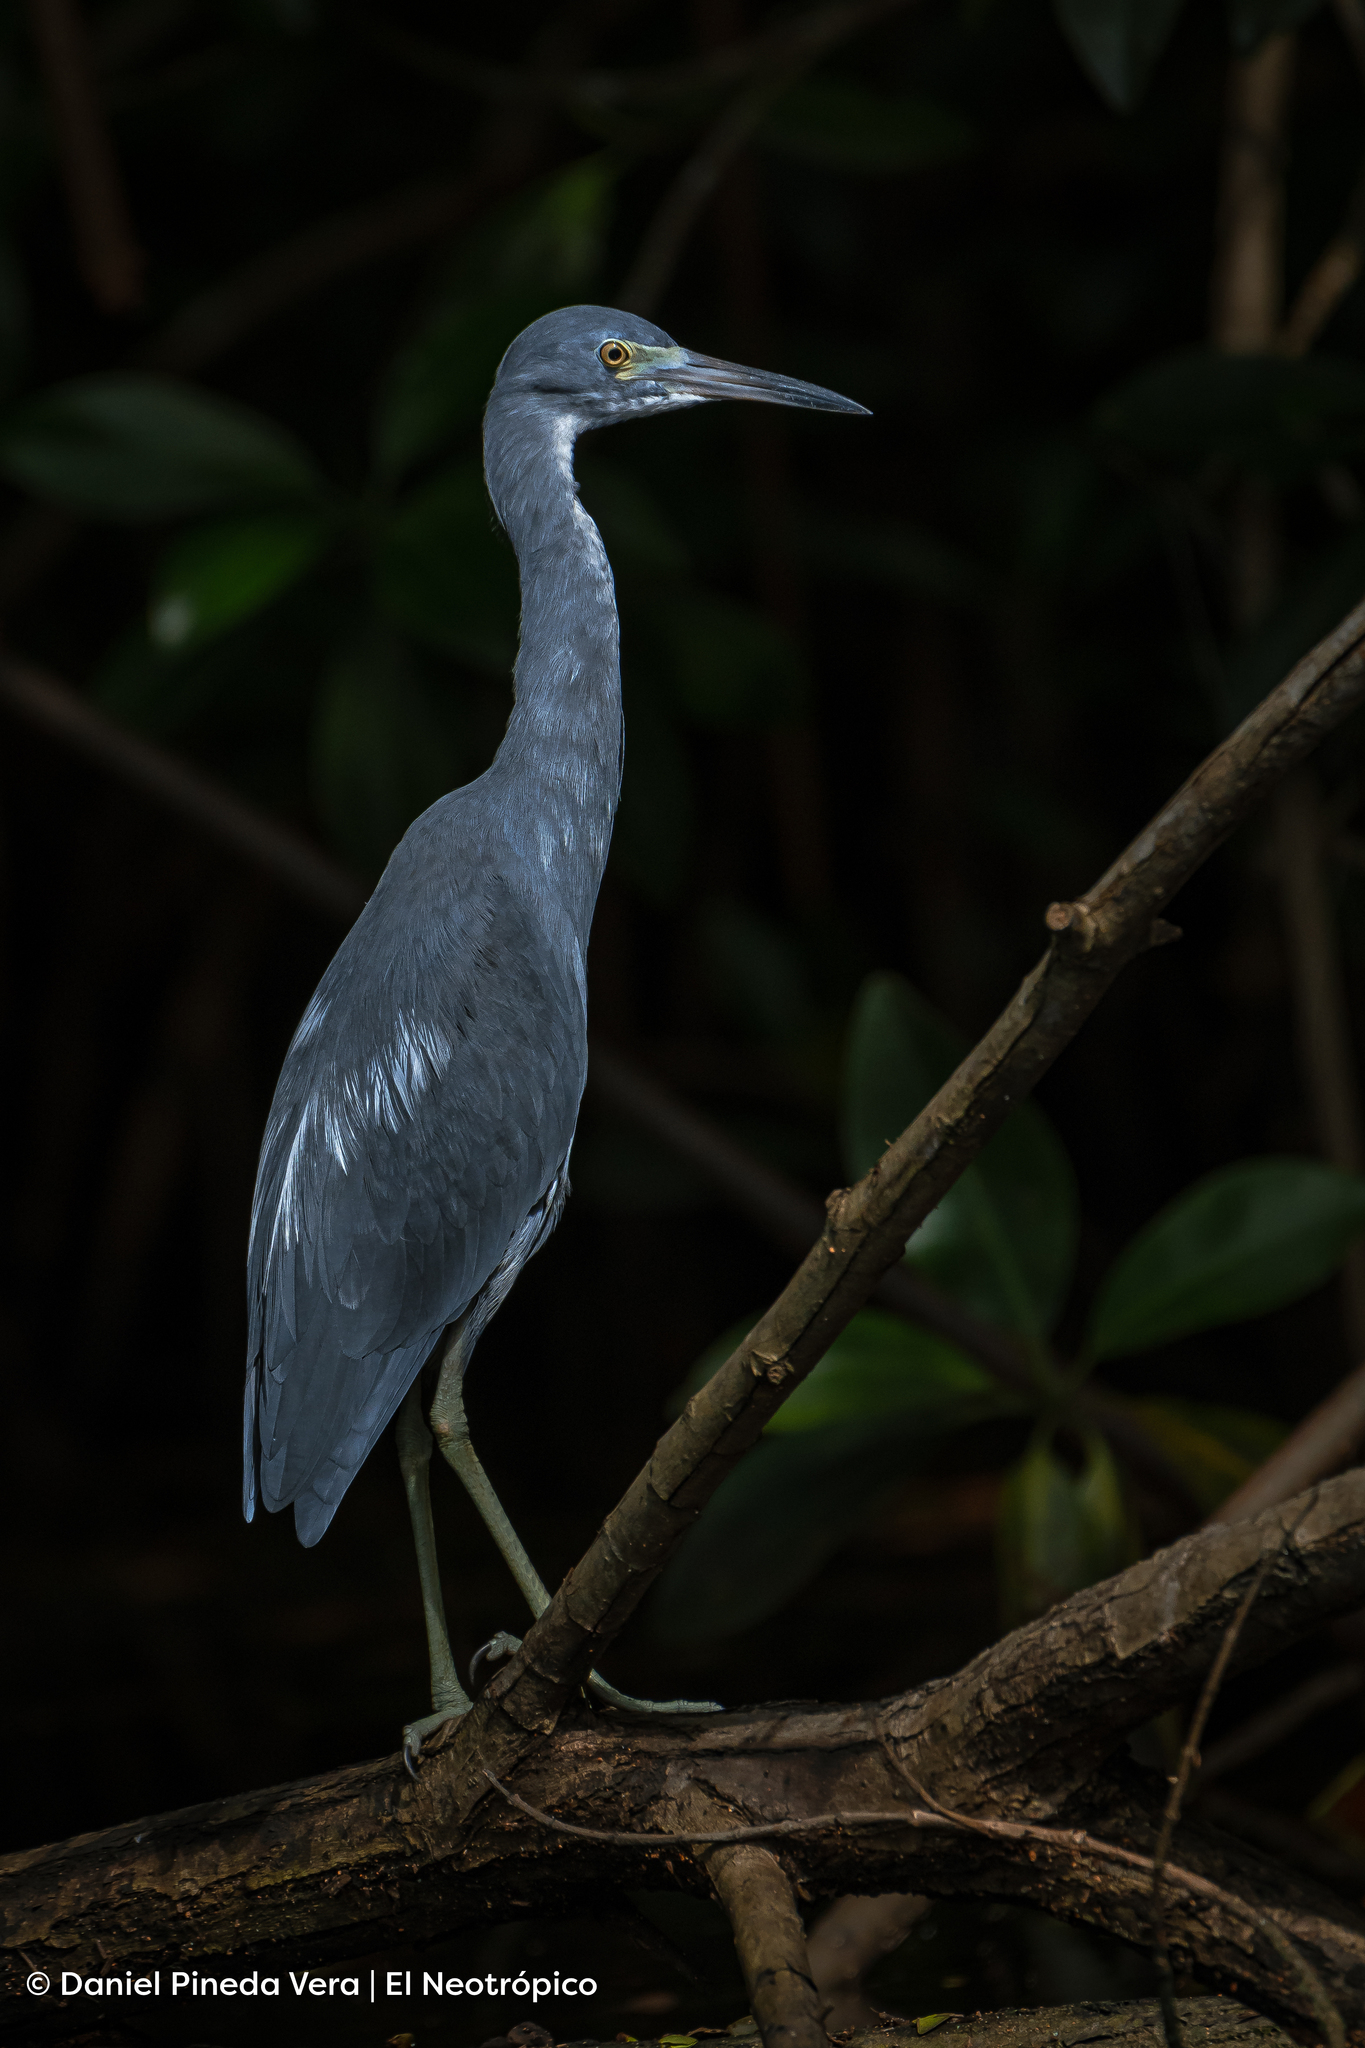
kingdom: Animalia
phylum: Chordata
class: Aves
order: Pelecaniformes
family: Ardeidae
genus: Egretta
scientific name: Egretta caerulea
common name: Little blue heron
